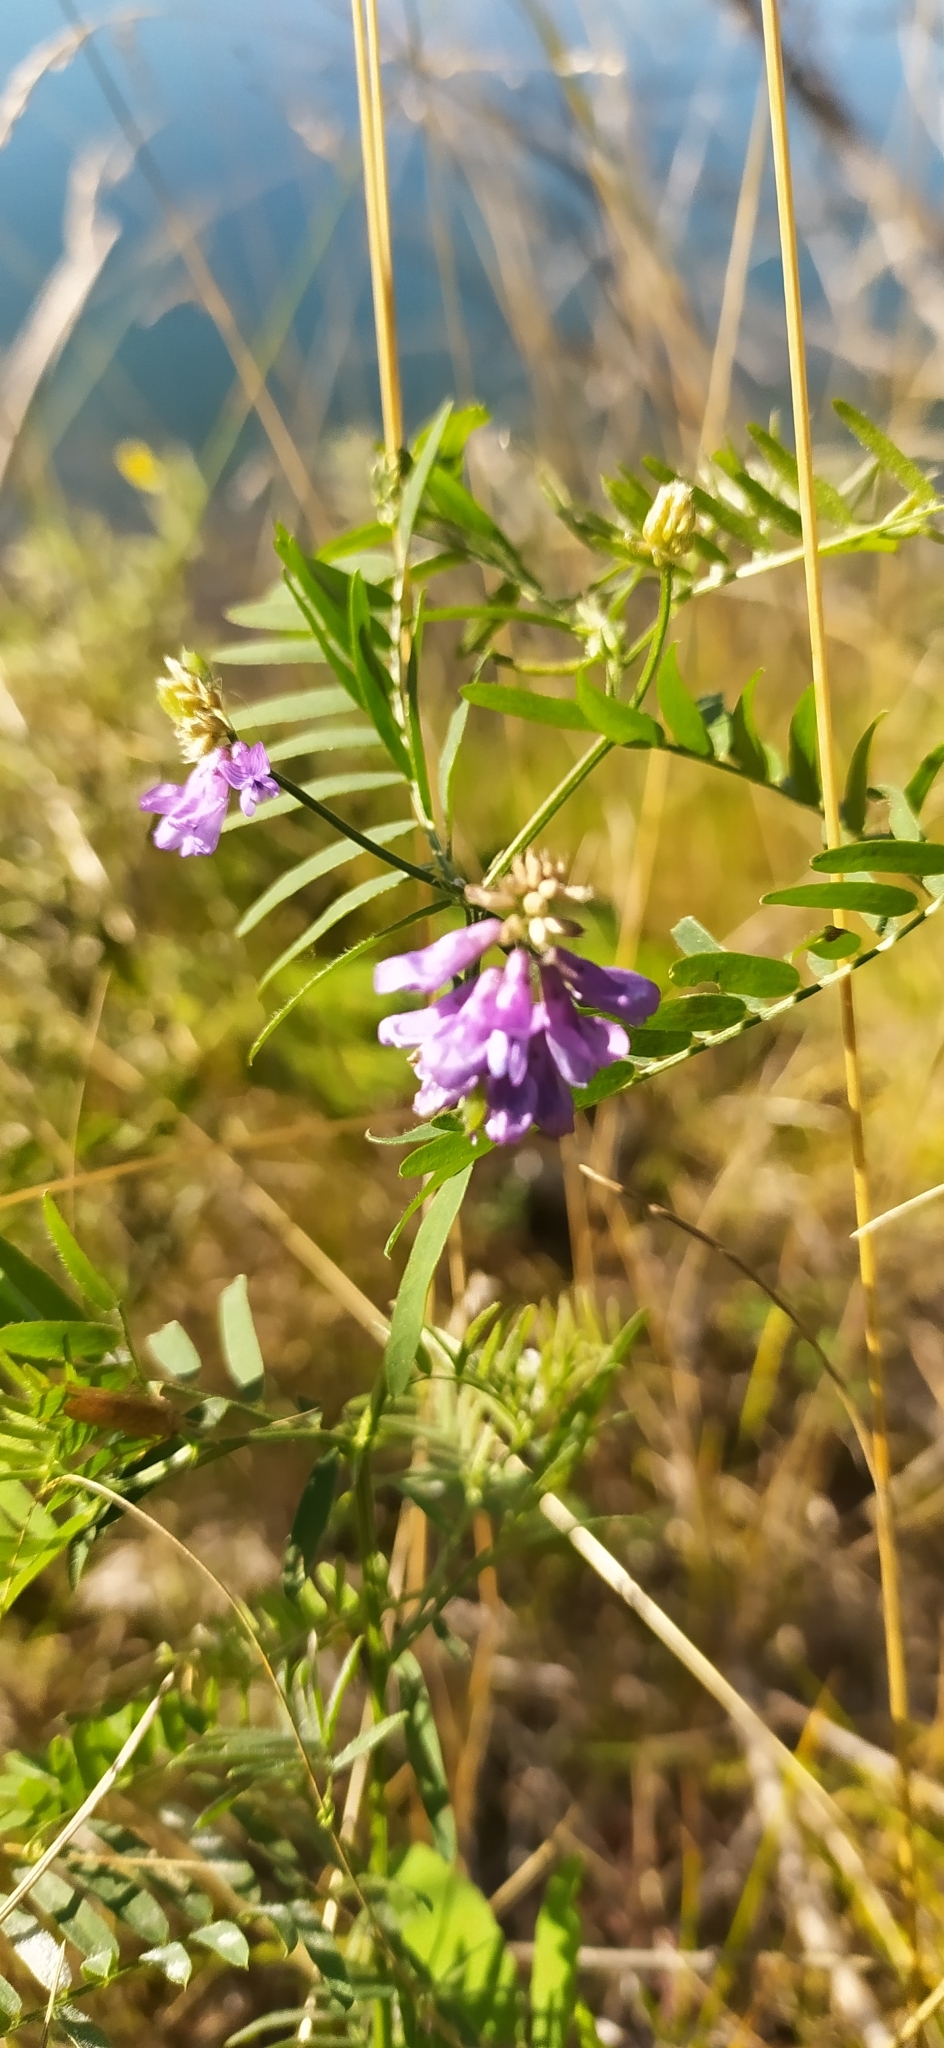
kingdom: Plantae
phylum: Tracheophyta
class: Magnoliopsida
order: Fabales
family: Fabaceae
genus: Vicia
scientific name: Vicia cracca
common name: Bird vetch
